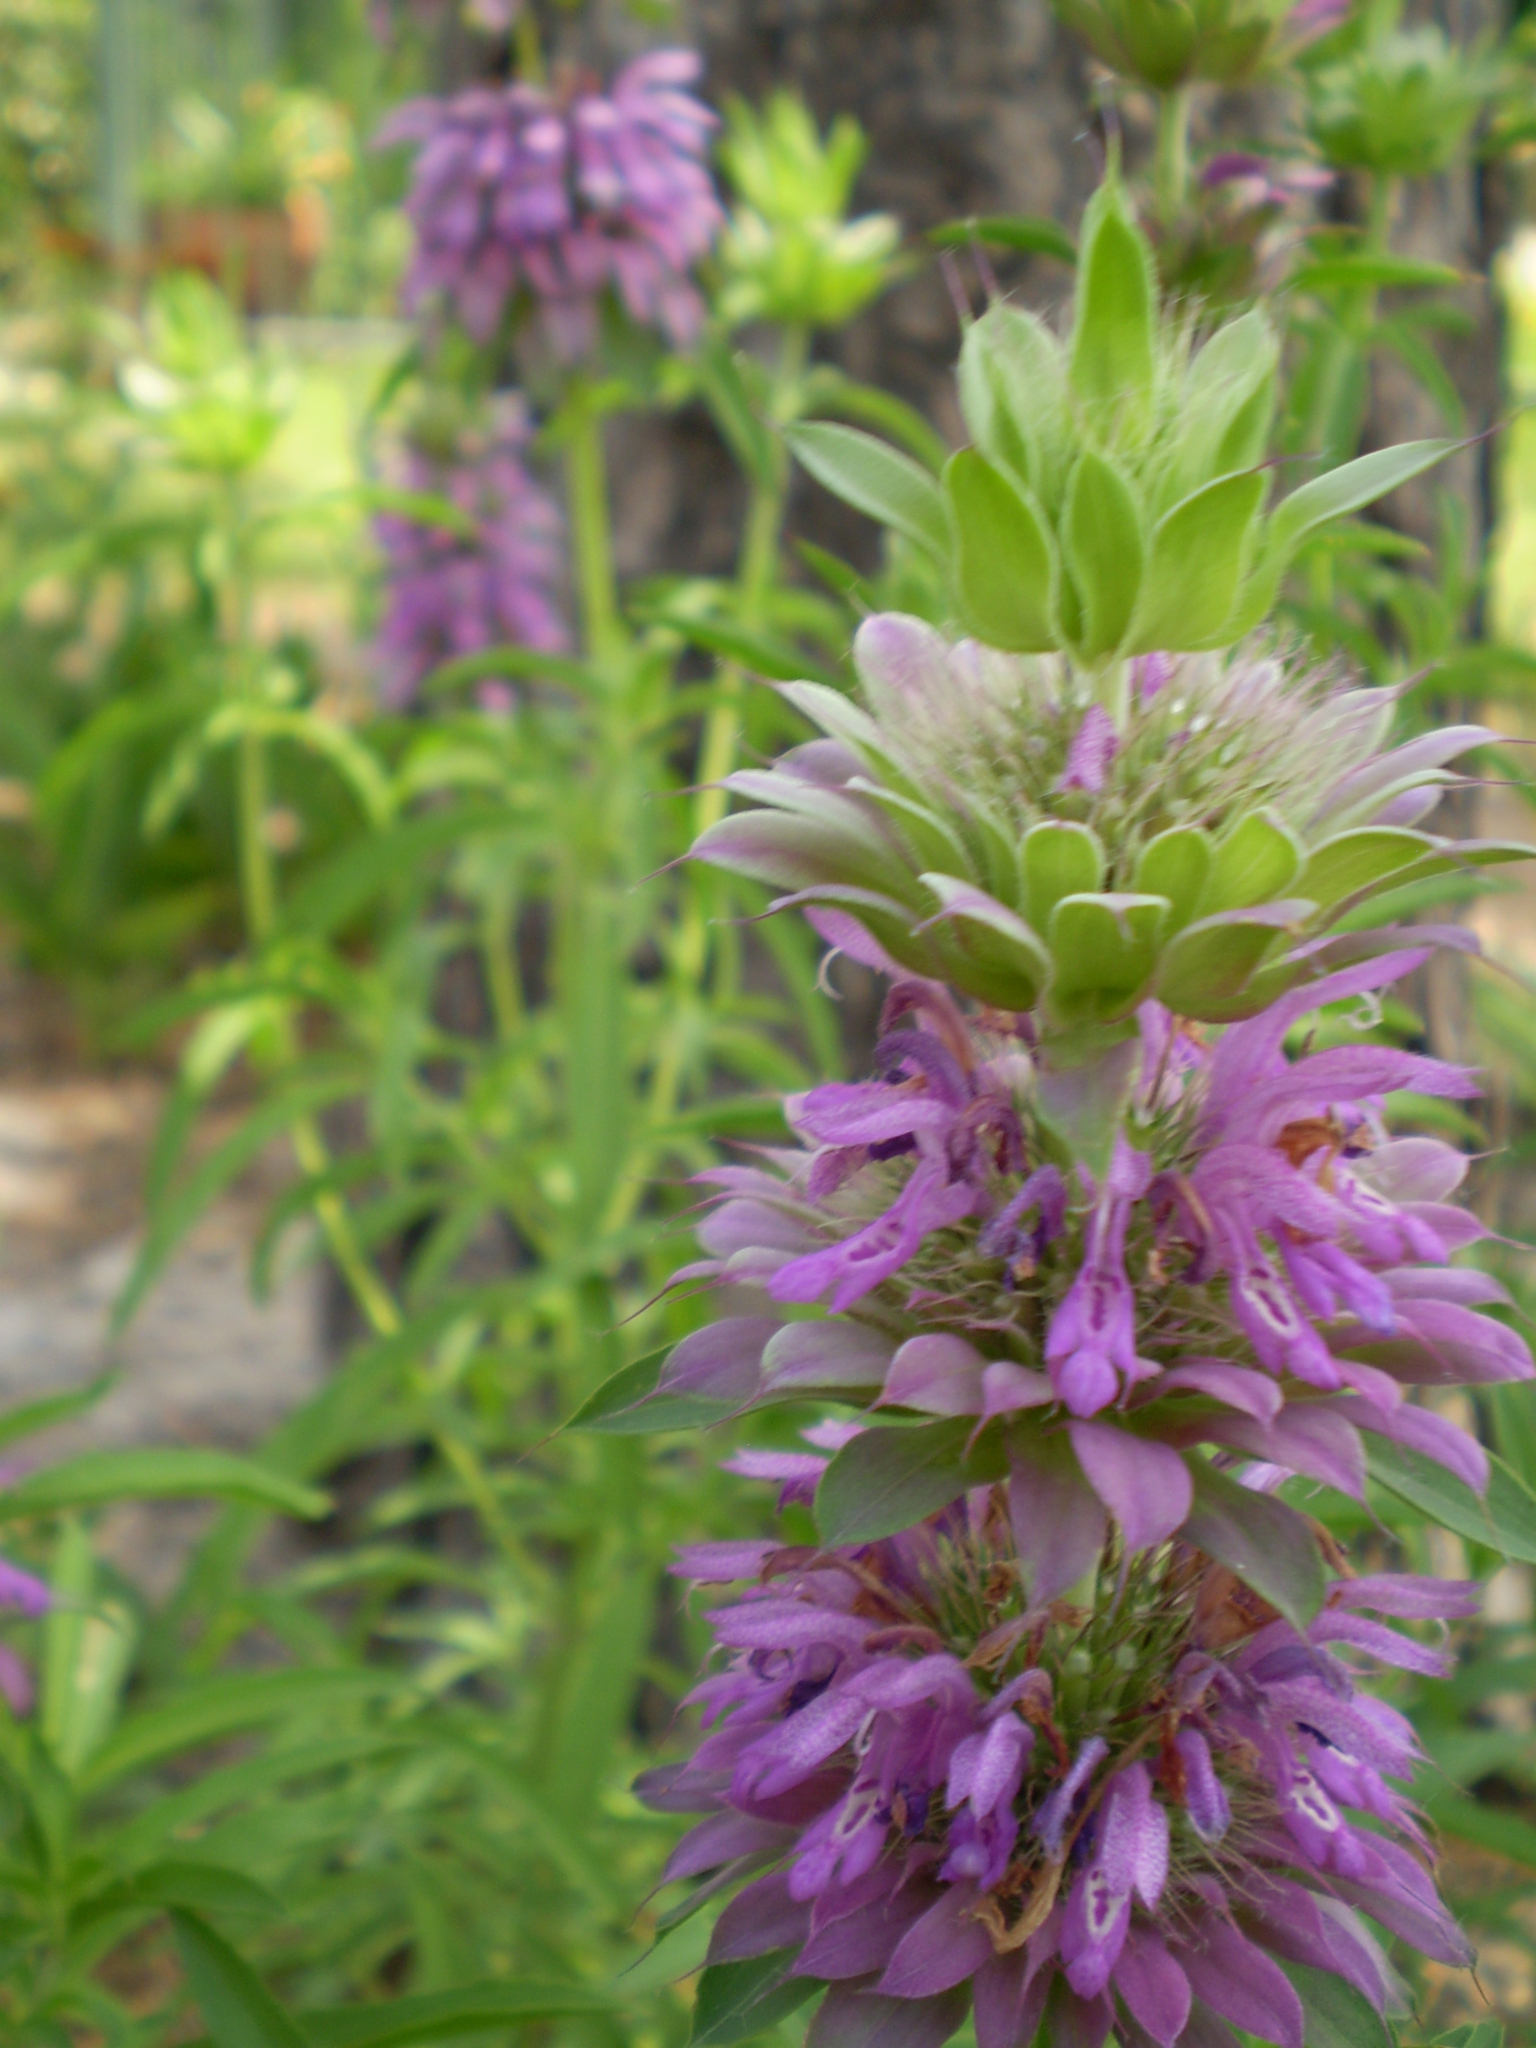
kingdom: Plantae
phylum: Tracheophyta
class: Magnoliopsida
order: Lamiales
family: Lamiaceae
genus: Monarda
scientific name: Monarda citriodora
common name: Lemon beebalm
